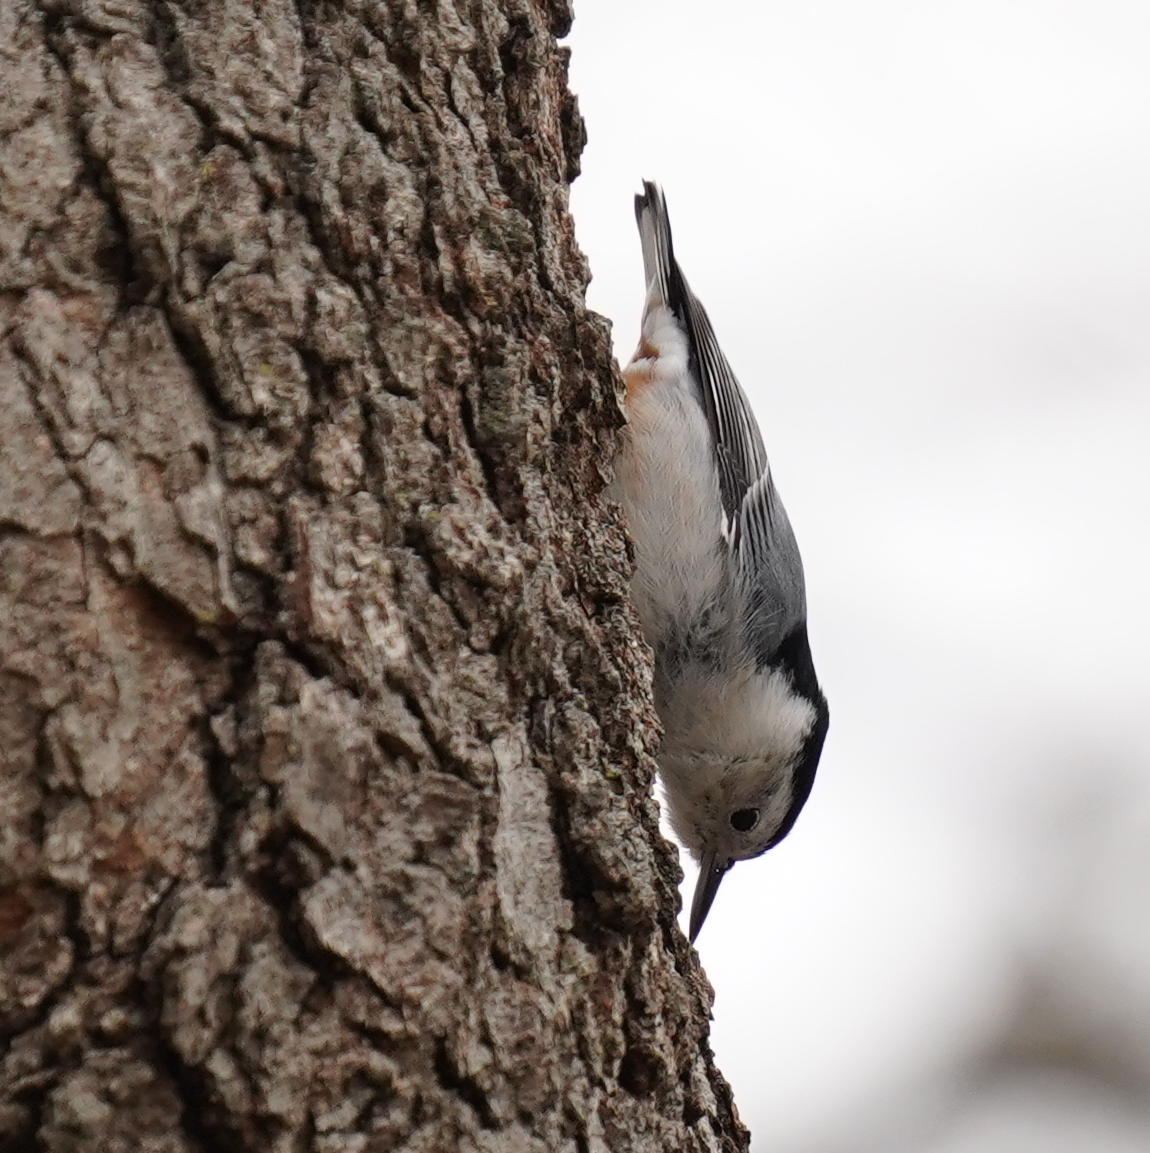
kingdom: Animalia
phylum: Chordata
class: Aves
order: Passeriformes
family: Sittidae
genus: Sitta
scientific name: Sitta carolinensis
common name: White-breasted nuthatch
